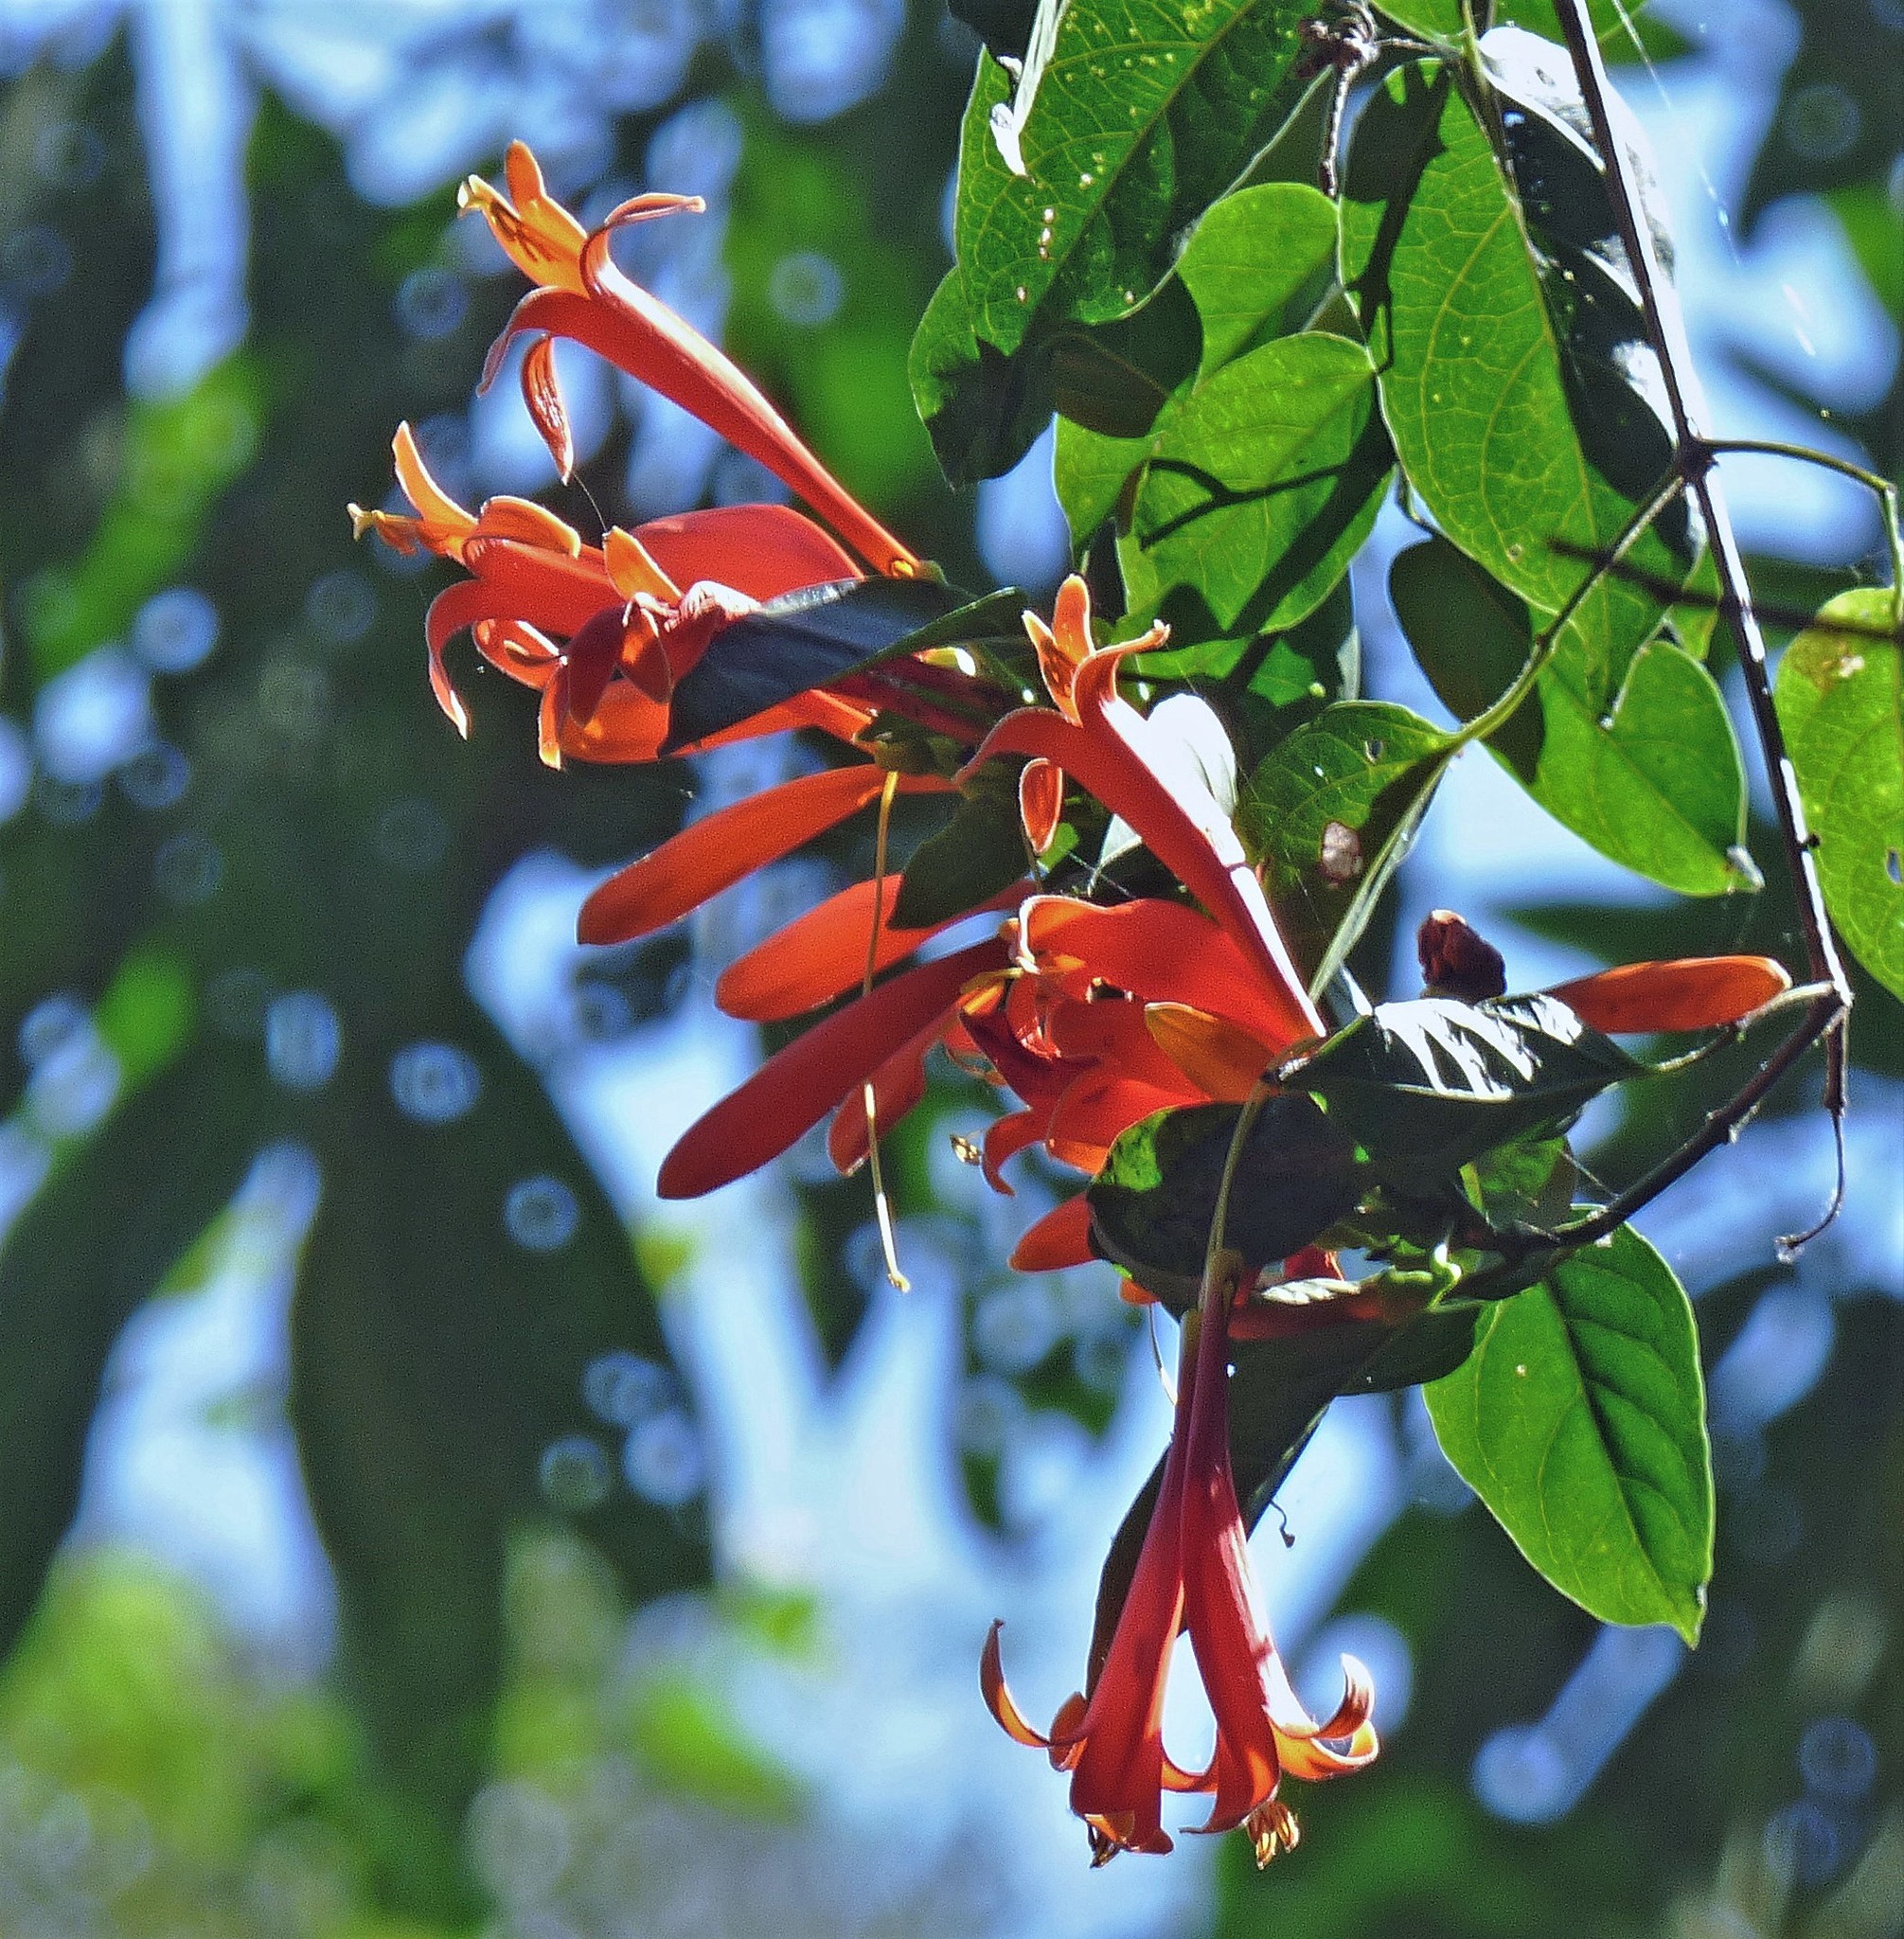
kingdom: Plantae
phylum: Tracheophyta
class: Magnoliopsida
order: Lamiales
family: Bignoniaceae
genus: Pyrostegia
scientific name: Pyrostegia venusta
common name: Flamevine
